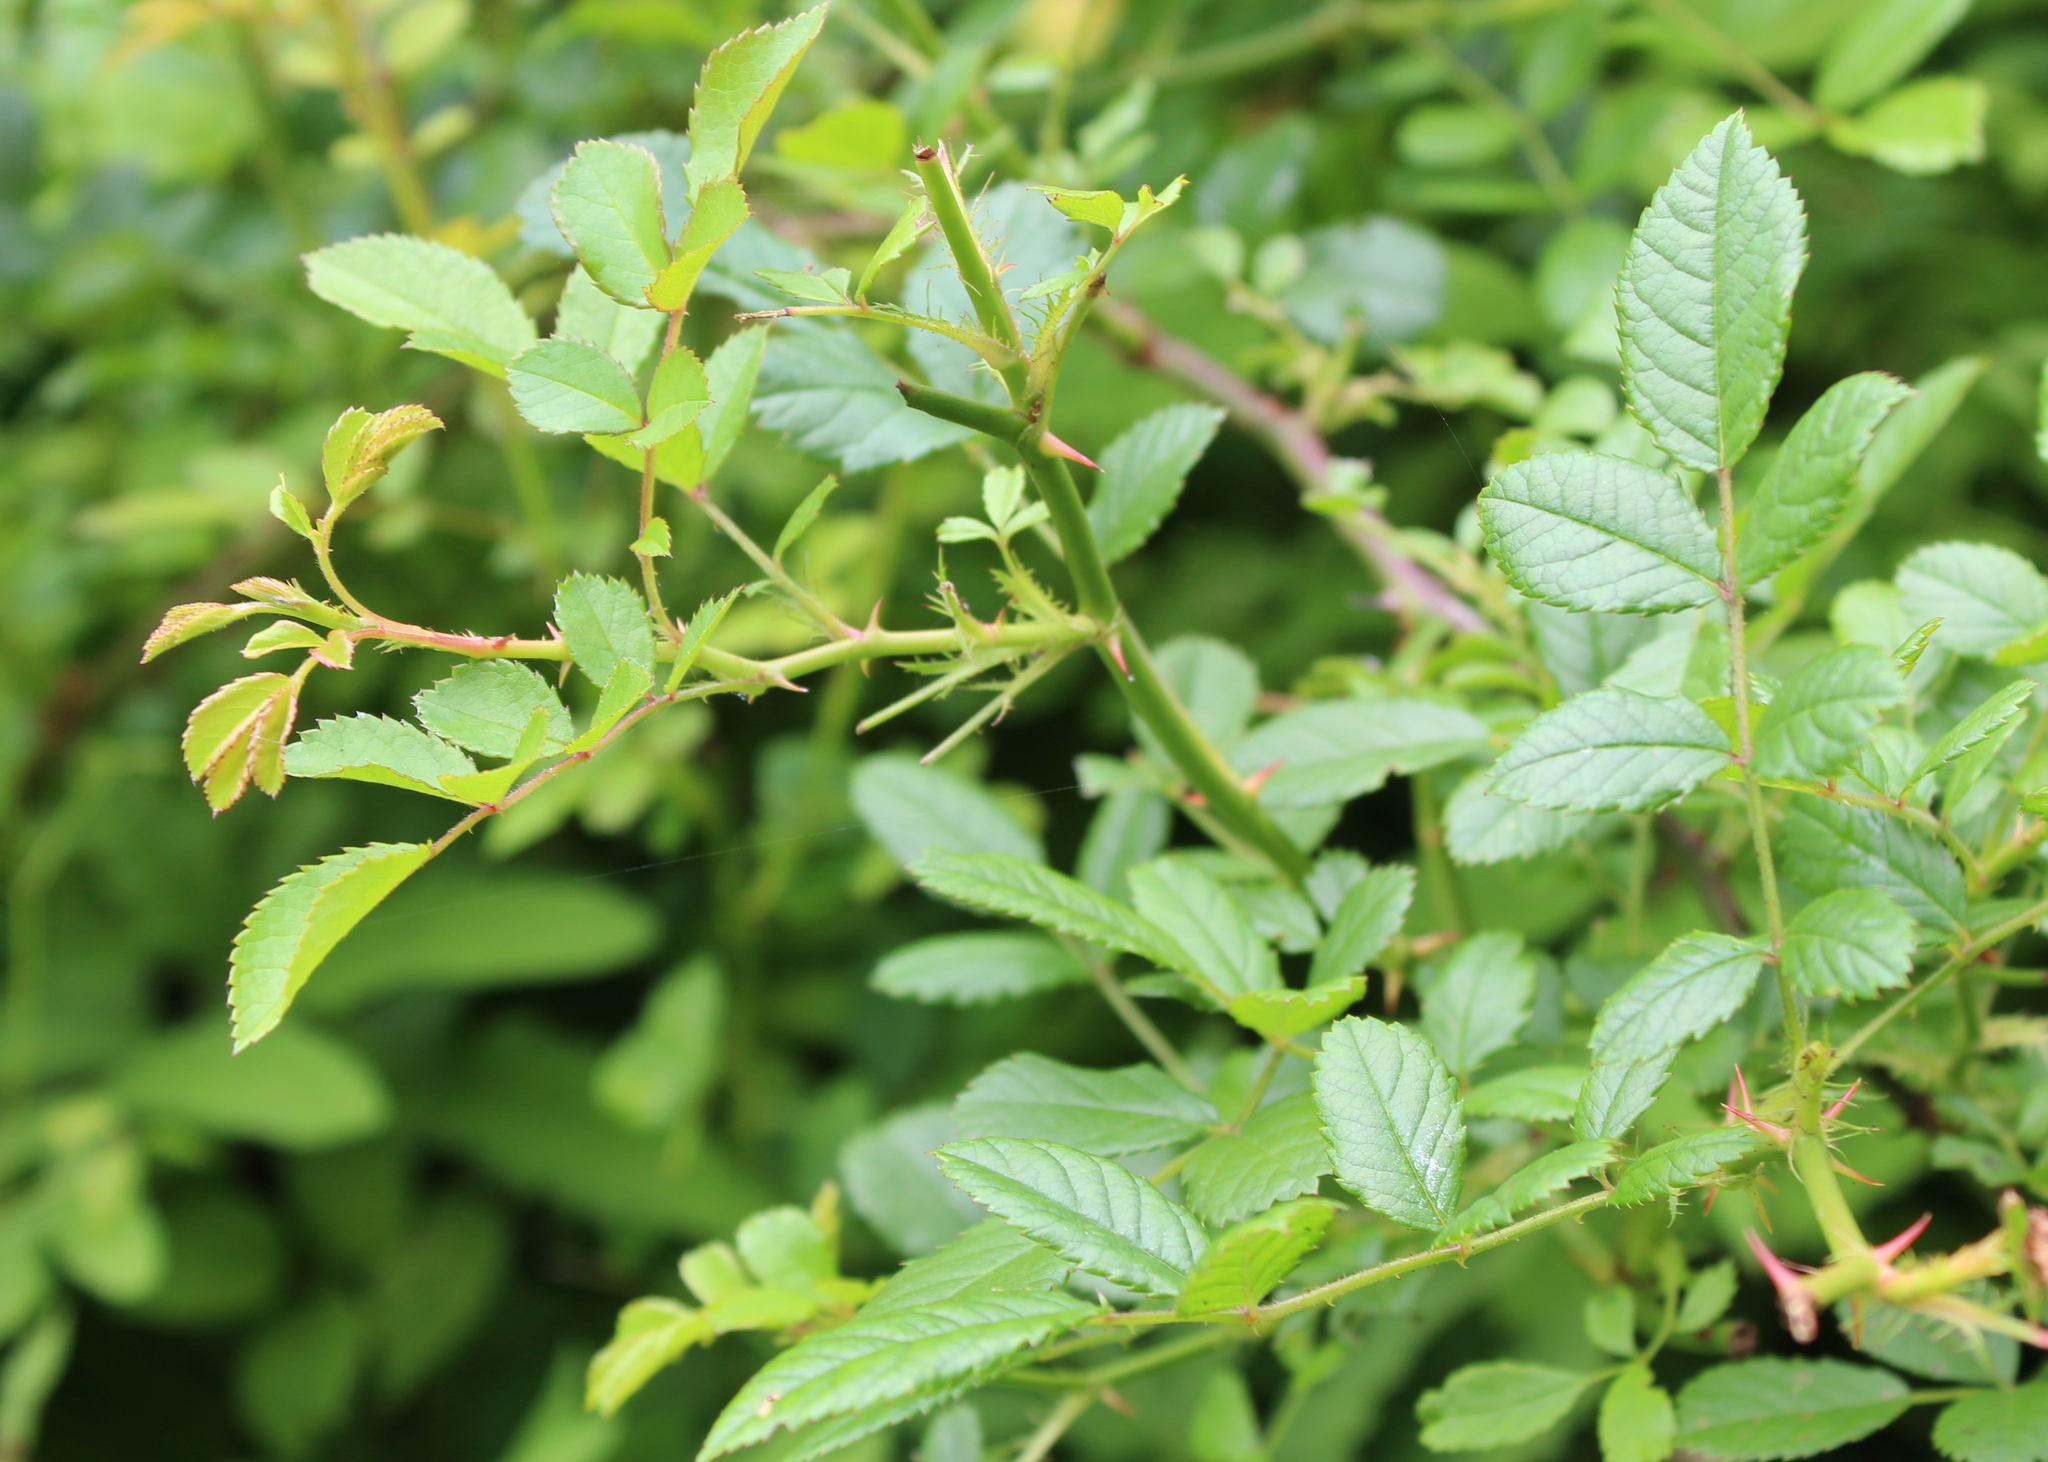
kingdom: Plantae
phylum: Tracheophyta
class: Magnoliopsida
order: Rosales
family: Rosaceae
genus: Rosa
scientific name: Rosa multiflora
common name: Multiflora rose
